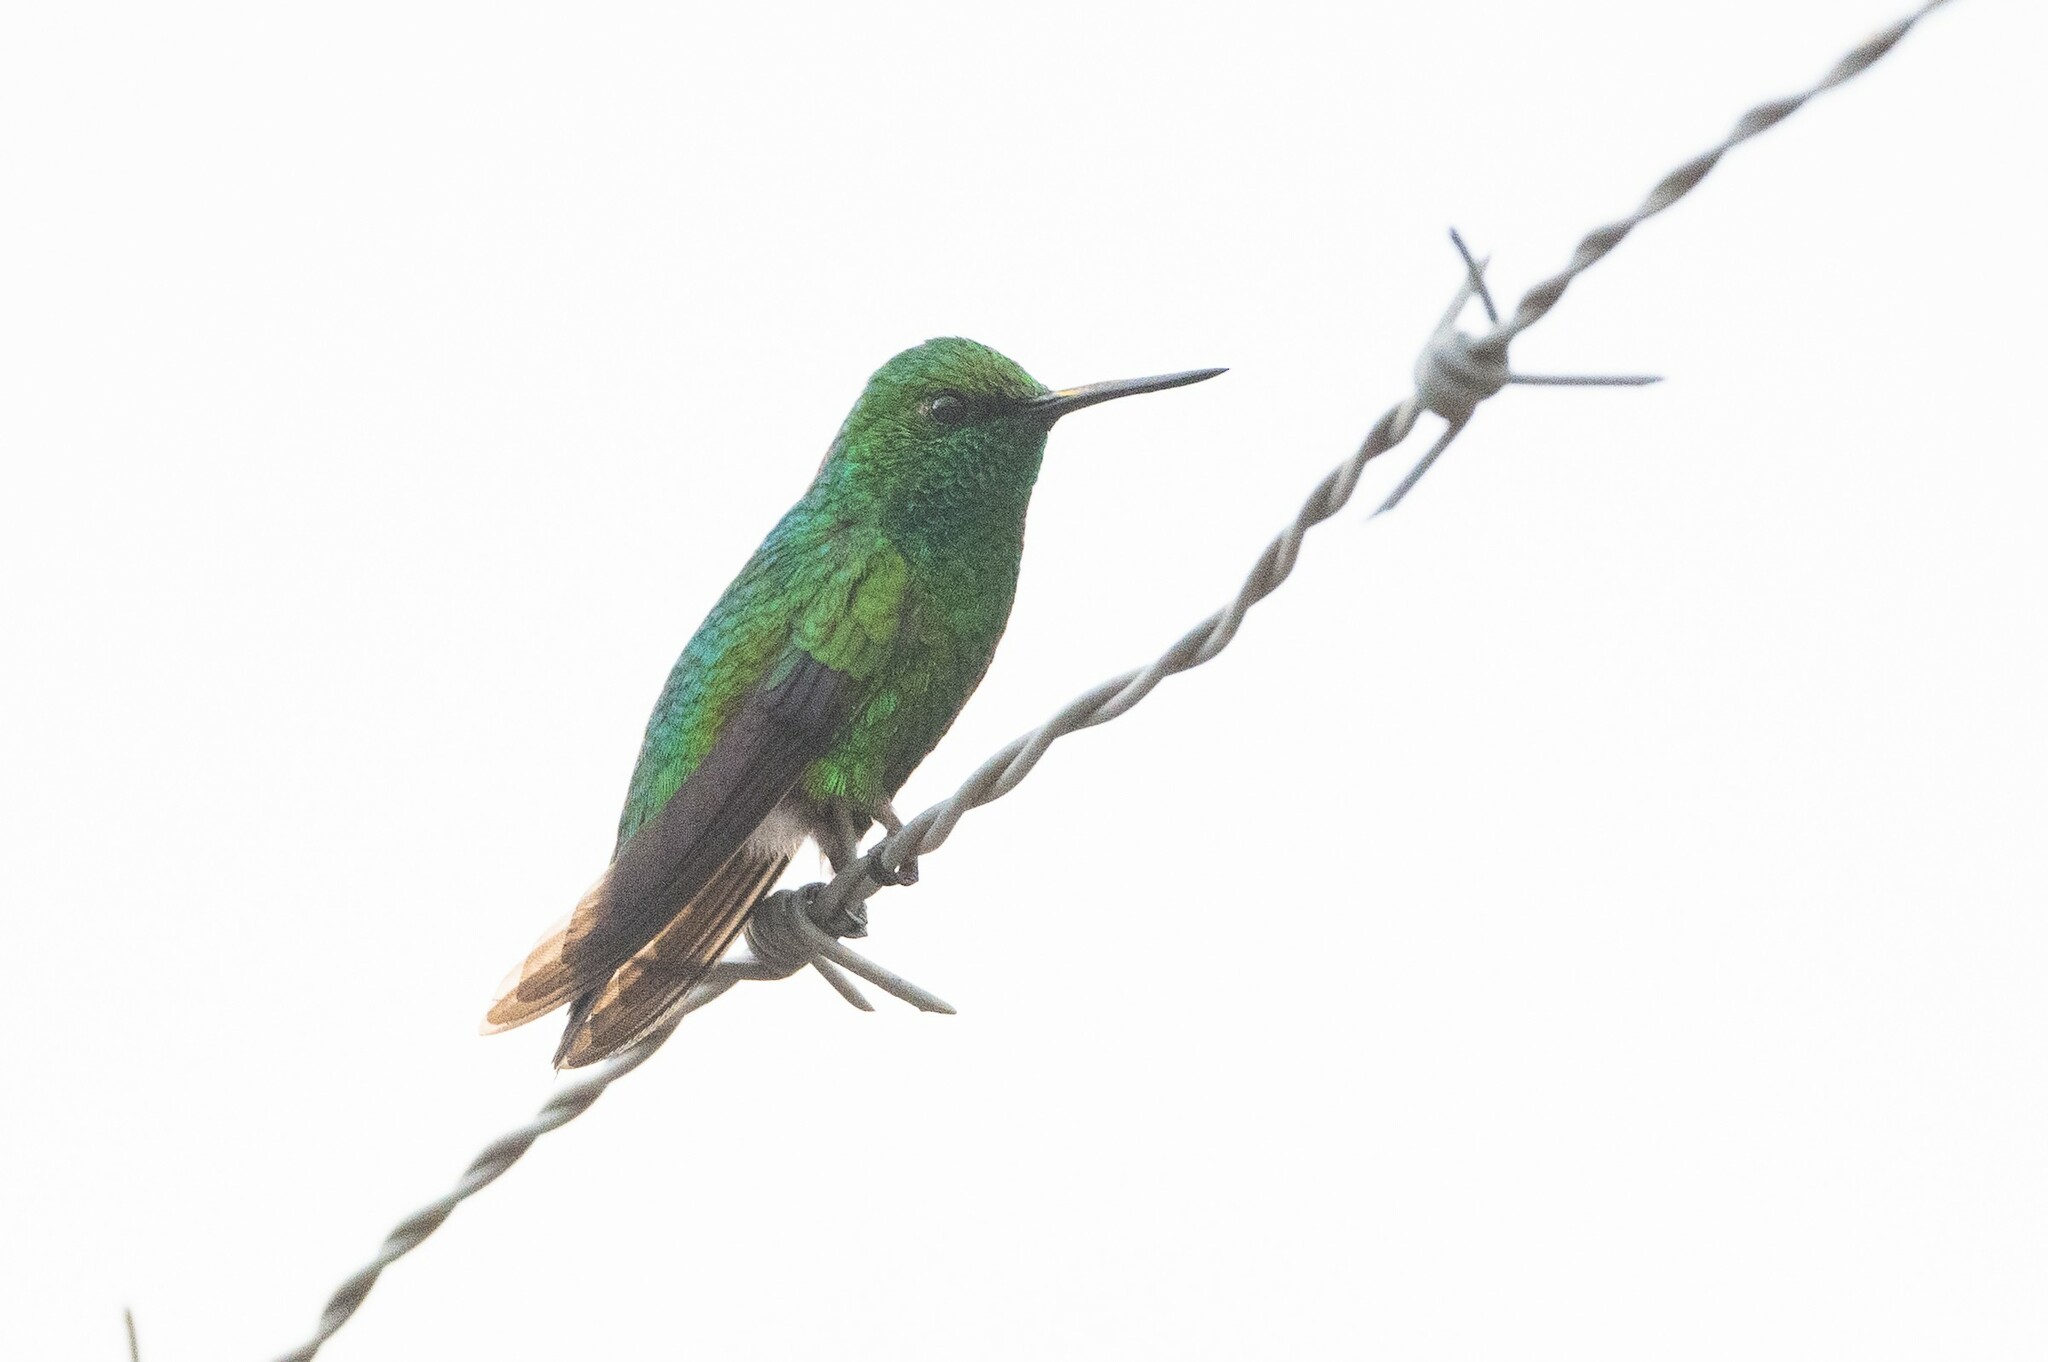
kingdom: Animalia
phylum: Chordata
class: Aves
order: Apodiformes
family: Trochilidae
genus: Chlorostilbon
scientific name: Chlorostilbon melanorhynchus
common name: Western emerald
